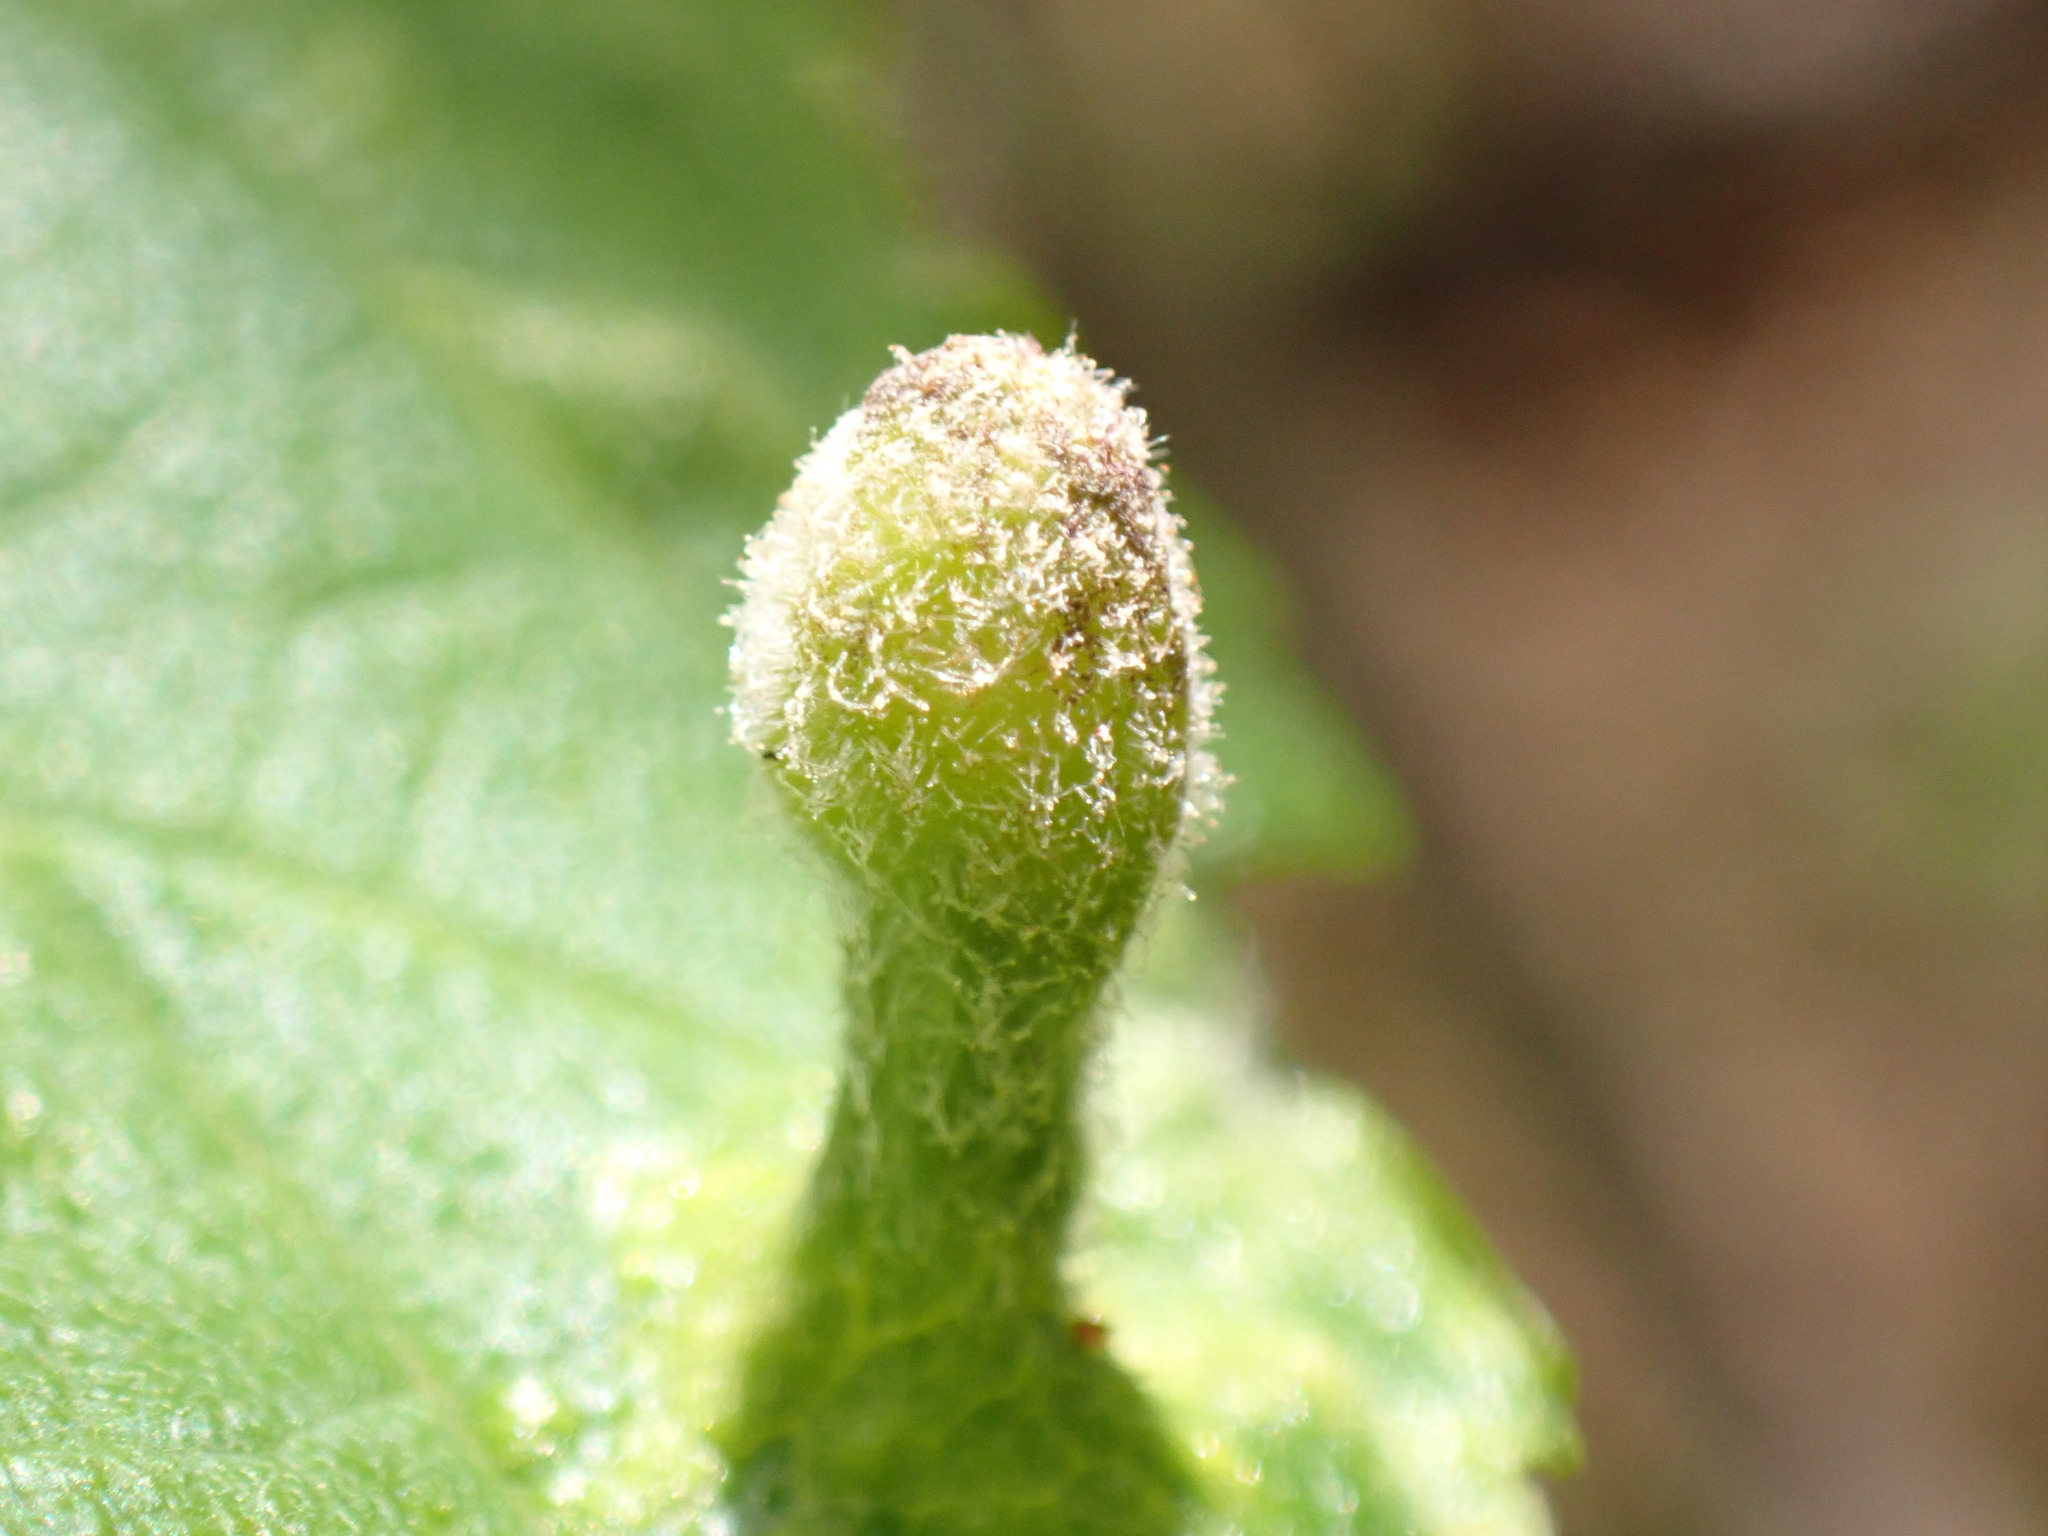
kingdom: Animalia
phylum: Arthropoda
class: Insecta
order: Hemiptera
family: Aphididae
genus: Tetraneura
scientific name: Tetraneura nigriabdominalis
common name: Aphid
